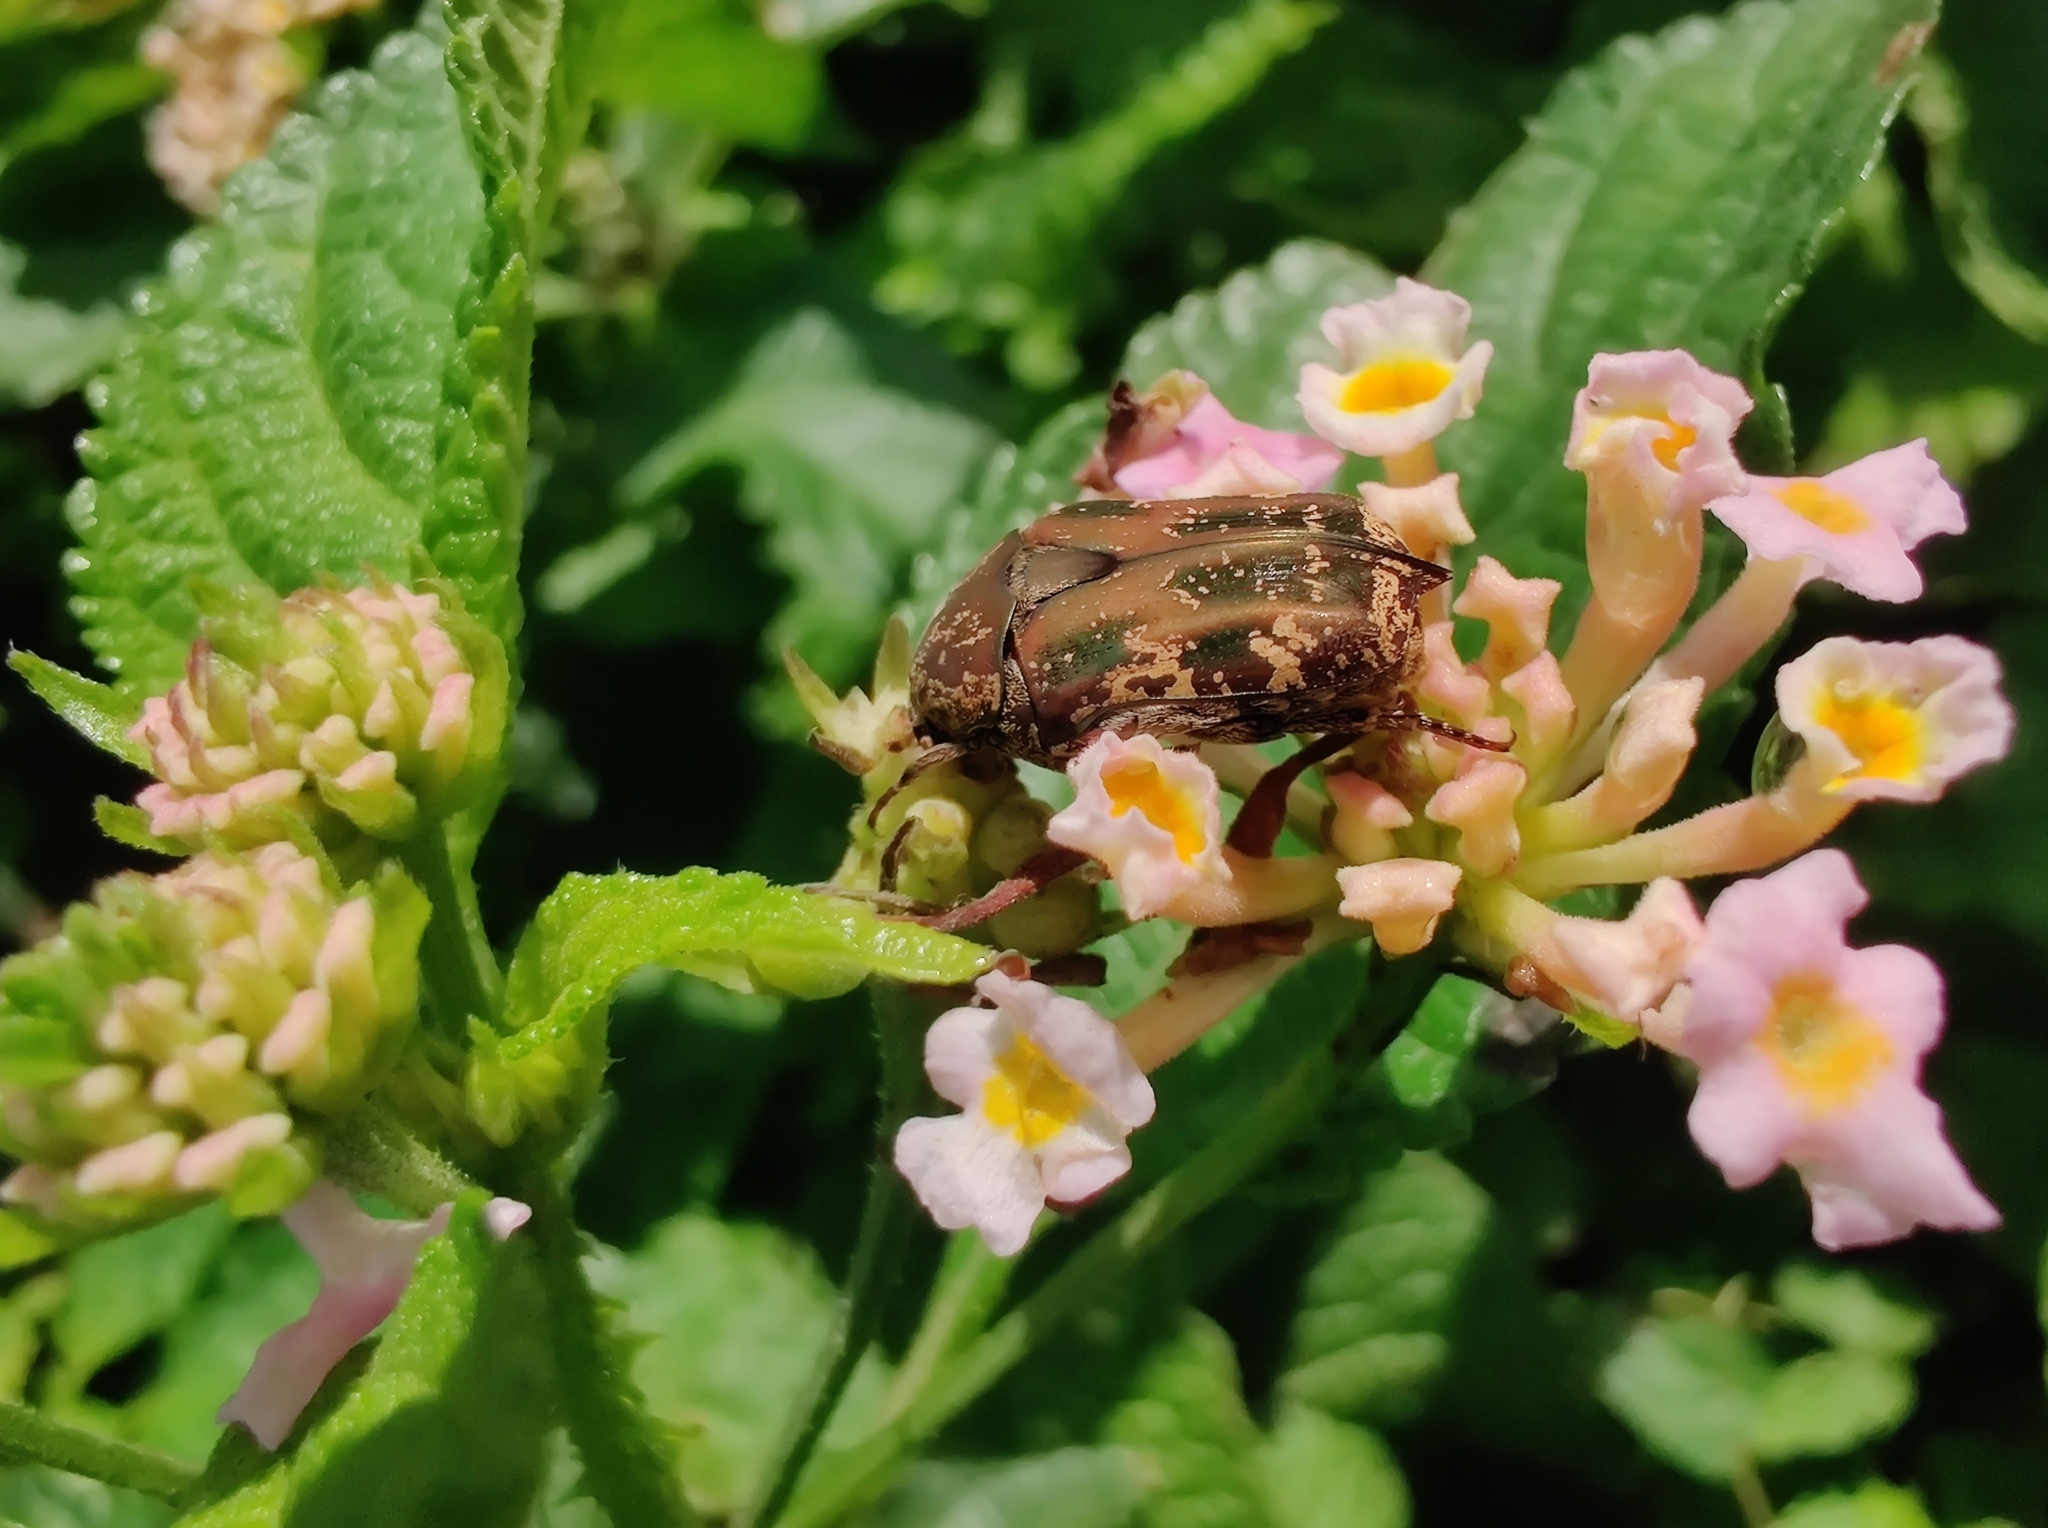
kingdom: Animalia
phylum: Arthropoda
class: Insecta
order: Coleoptera
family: Scarabaeidae
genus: Protaetia
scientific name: Protaetia fusca
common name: Mango flower beetle
